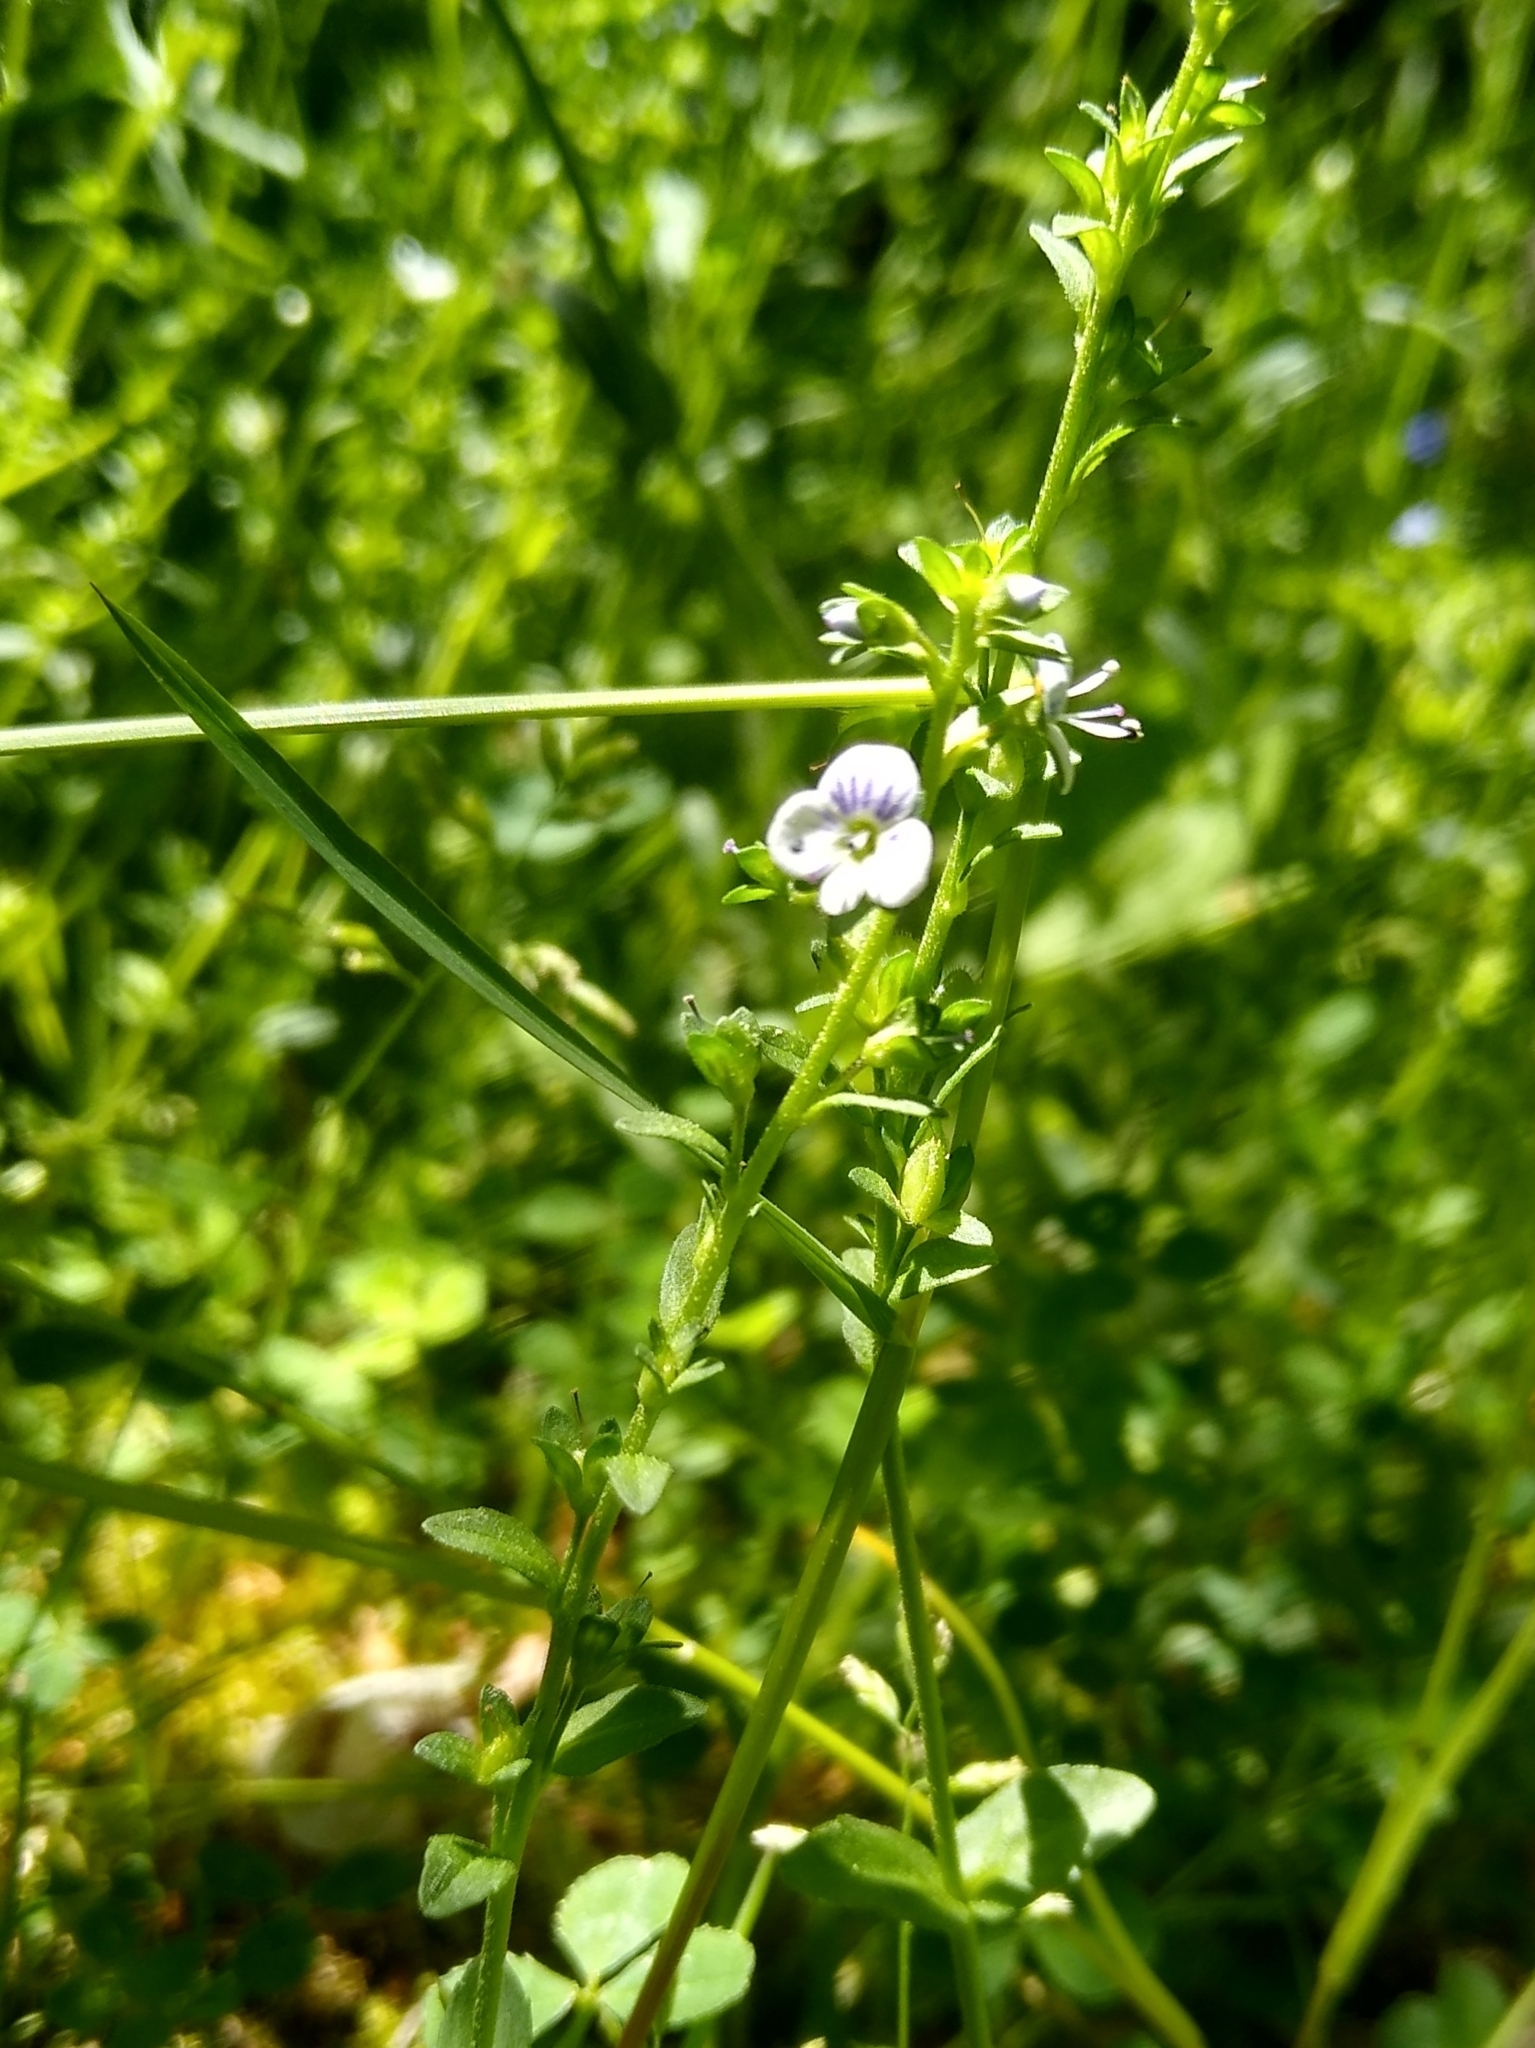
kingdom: Plantae
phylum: Tracheophyta
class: Magnoliopsida
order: Lamiales
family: Plantaginaceae
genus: Veronica
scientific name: Veronica serpyllifolia
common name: Thyme-leaved speedwell
